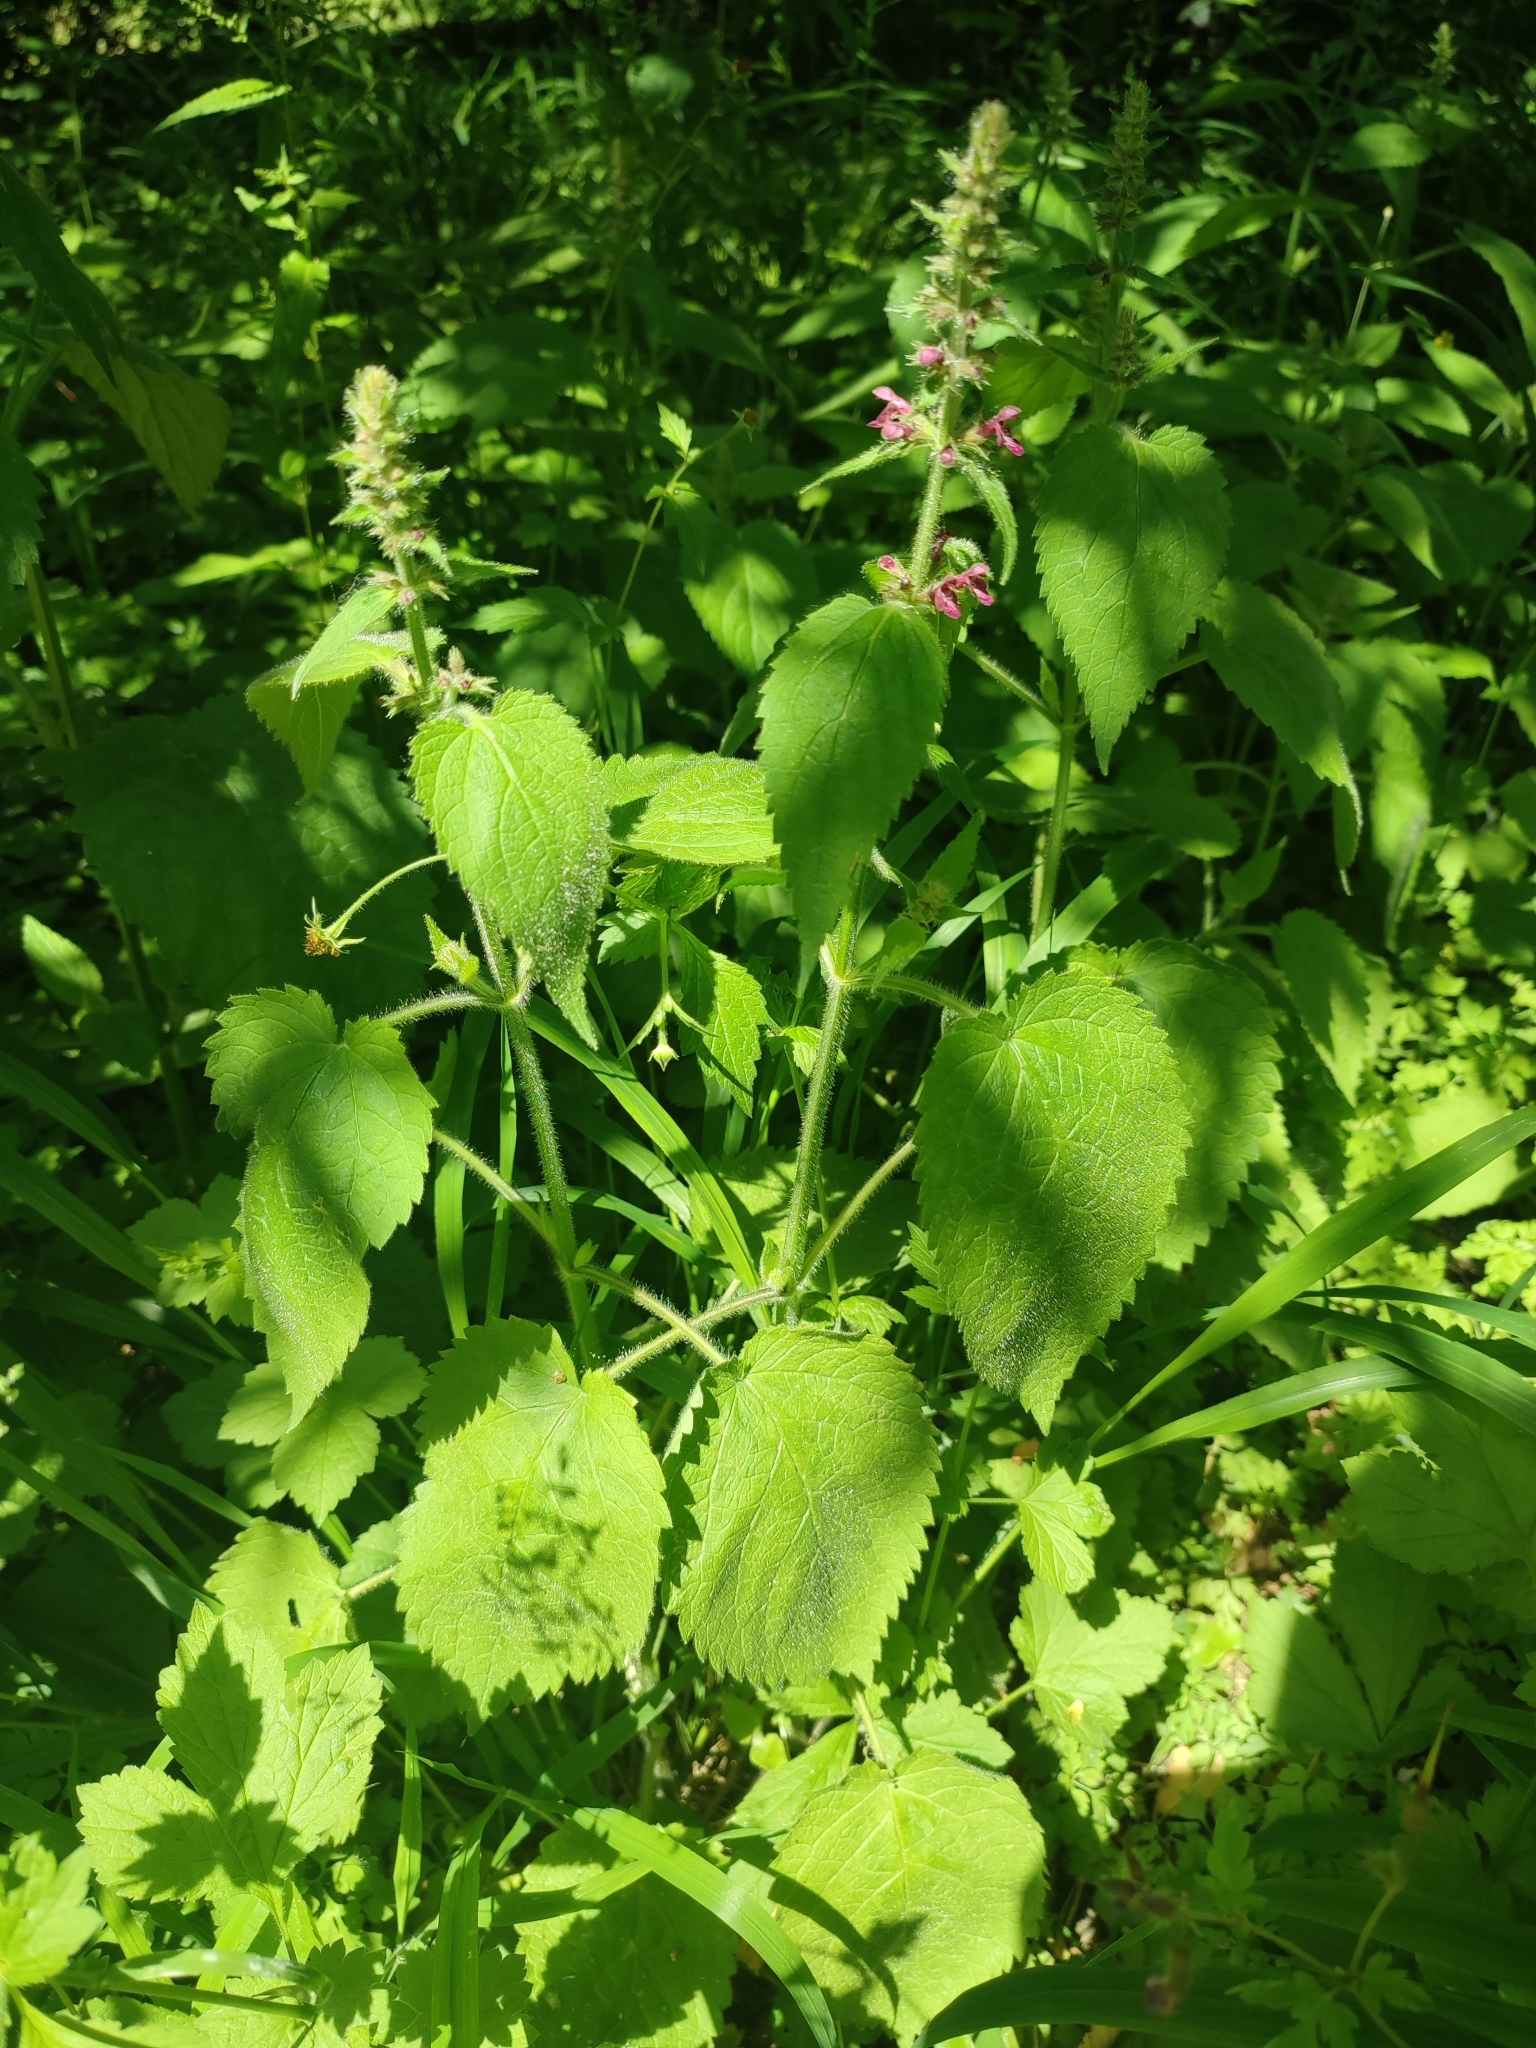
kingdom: Plantae
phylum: Tracheophyta
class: Magnoliopsida
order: Lamiales
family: Lamiaceae
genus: Stachys
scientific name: Stachys sylvatica
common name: Hedge woundwort
